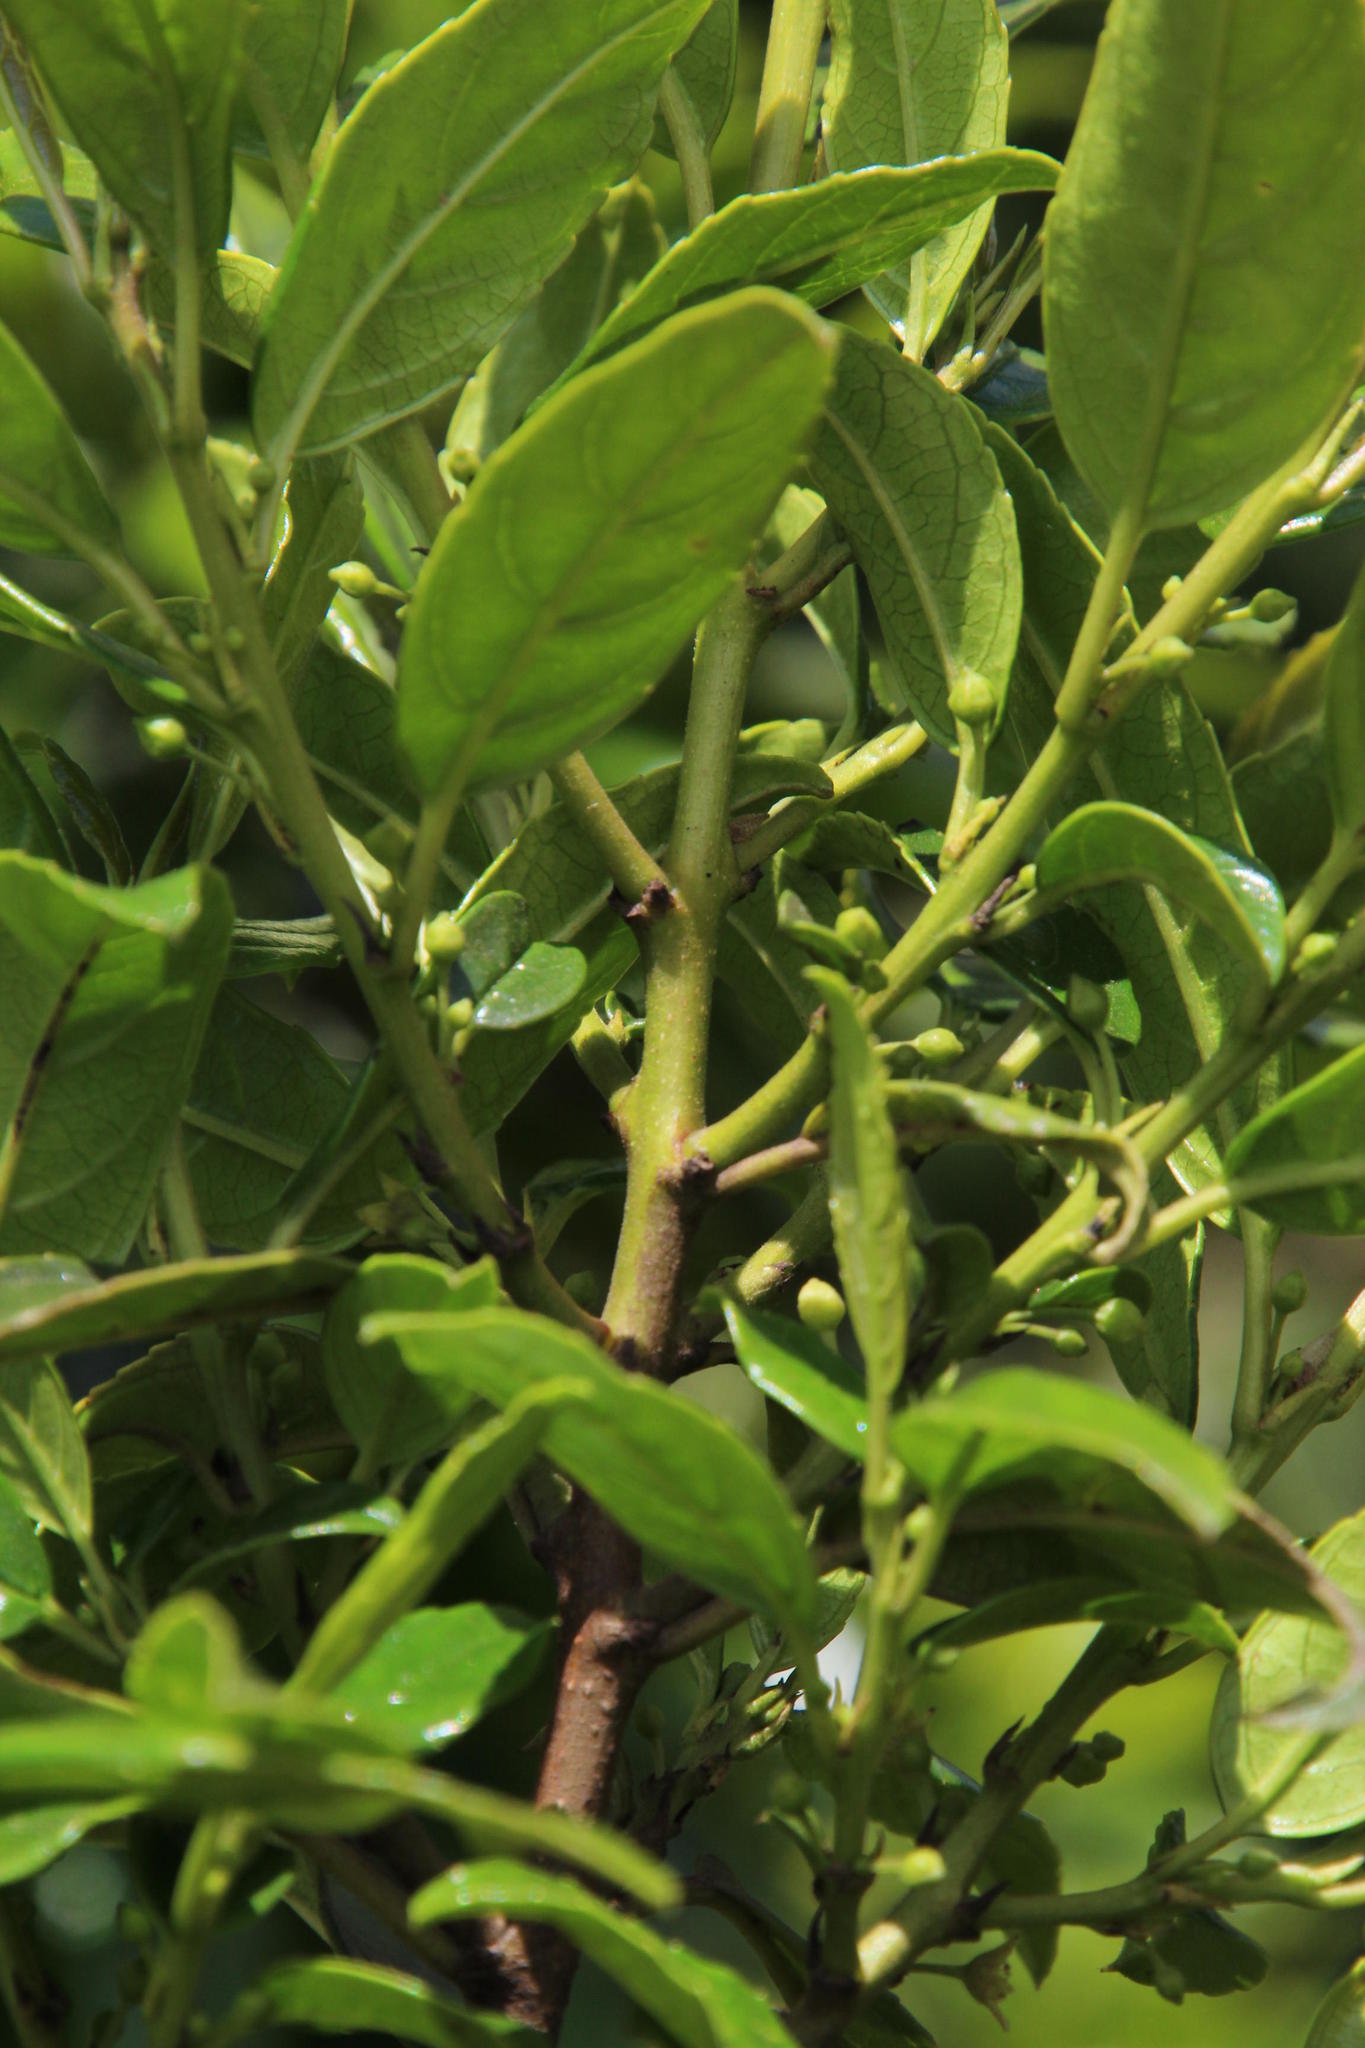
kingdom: Plantae
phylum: Tracheophyta
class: Magnoliopsida
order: Rosales
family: Rhamnaceae
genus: Rhamnus
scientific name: Rhamnus prinoides
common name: Dogwood
